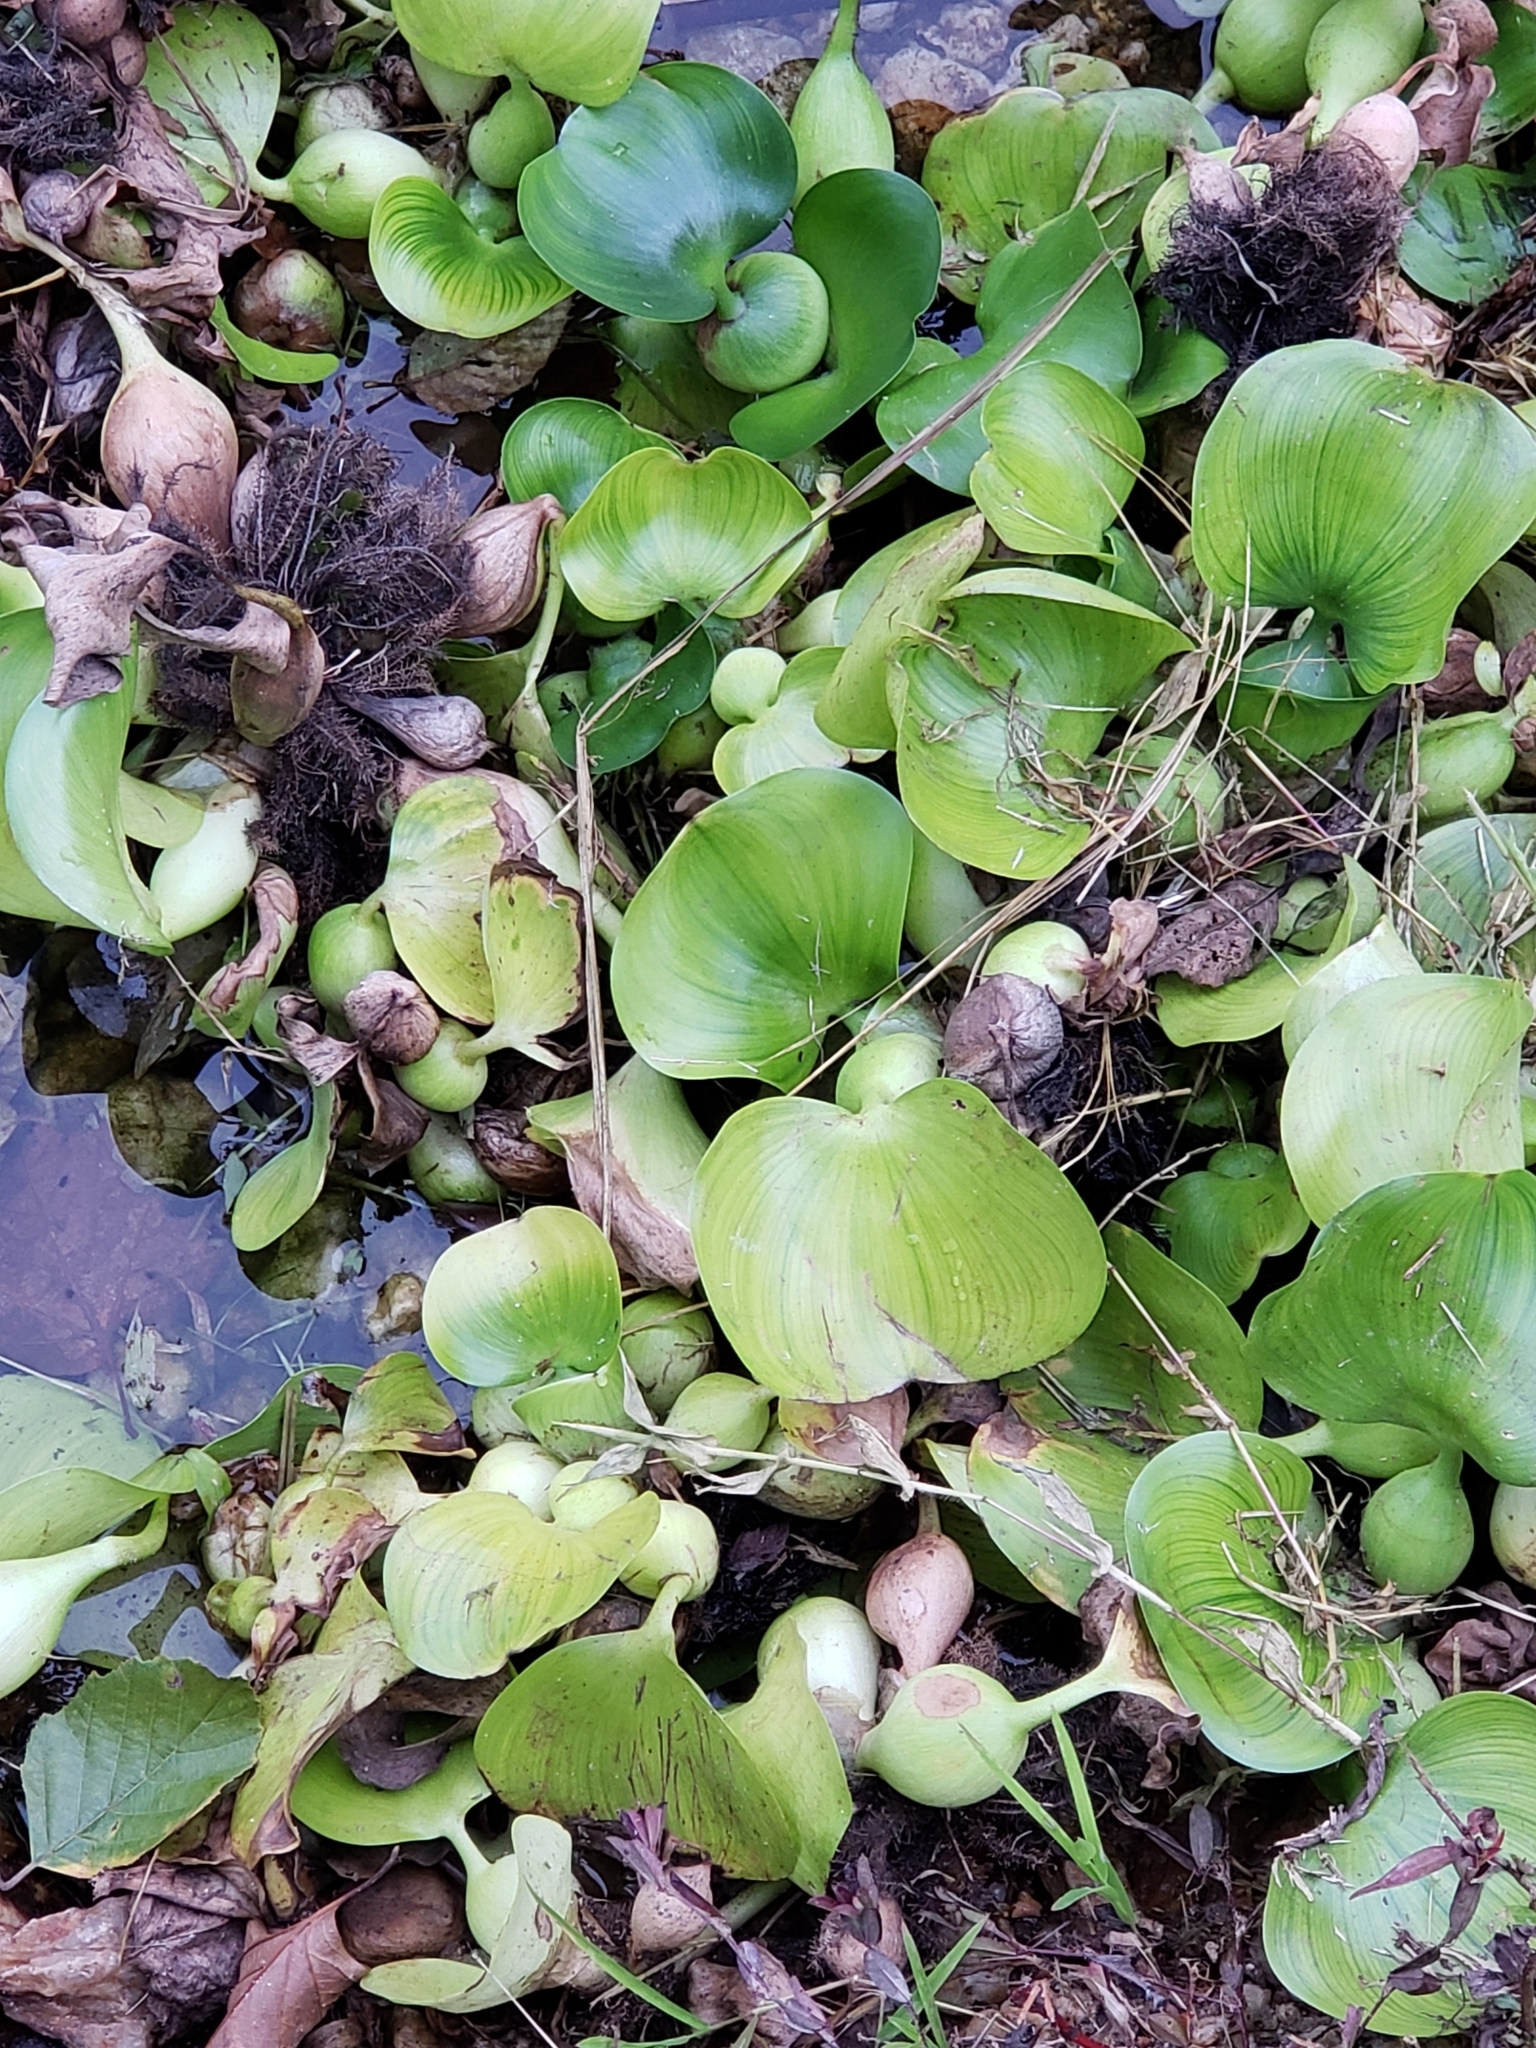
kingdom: Plantae
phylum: Tracheophyta
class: Liliopsida
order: Commelinales
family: Pontederiaceae
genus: Pontederia
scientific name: Pontederia crassipes
